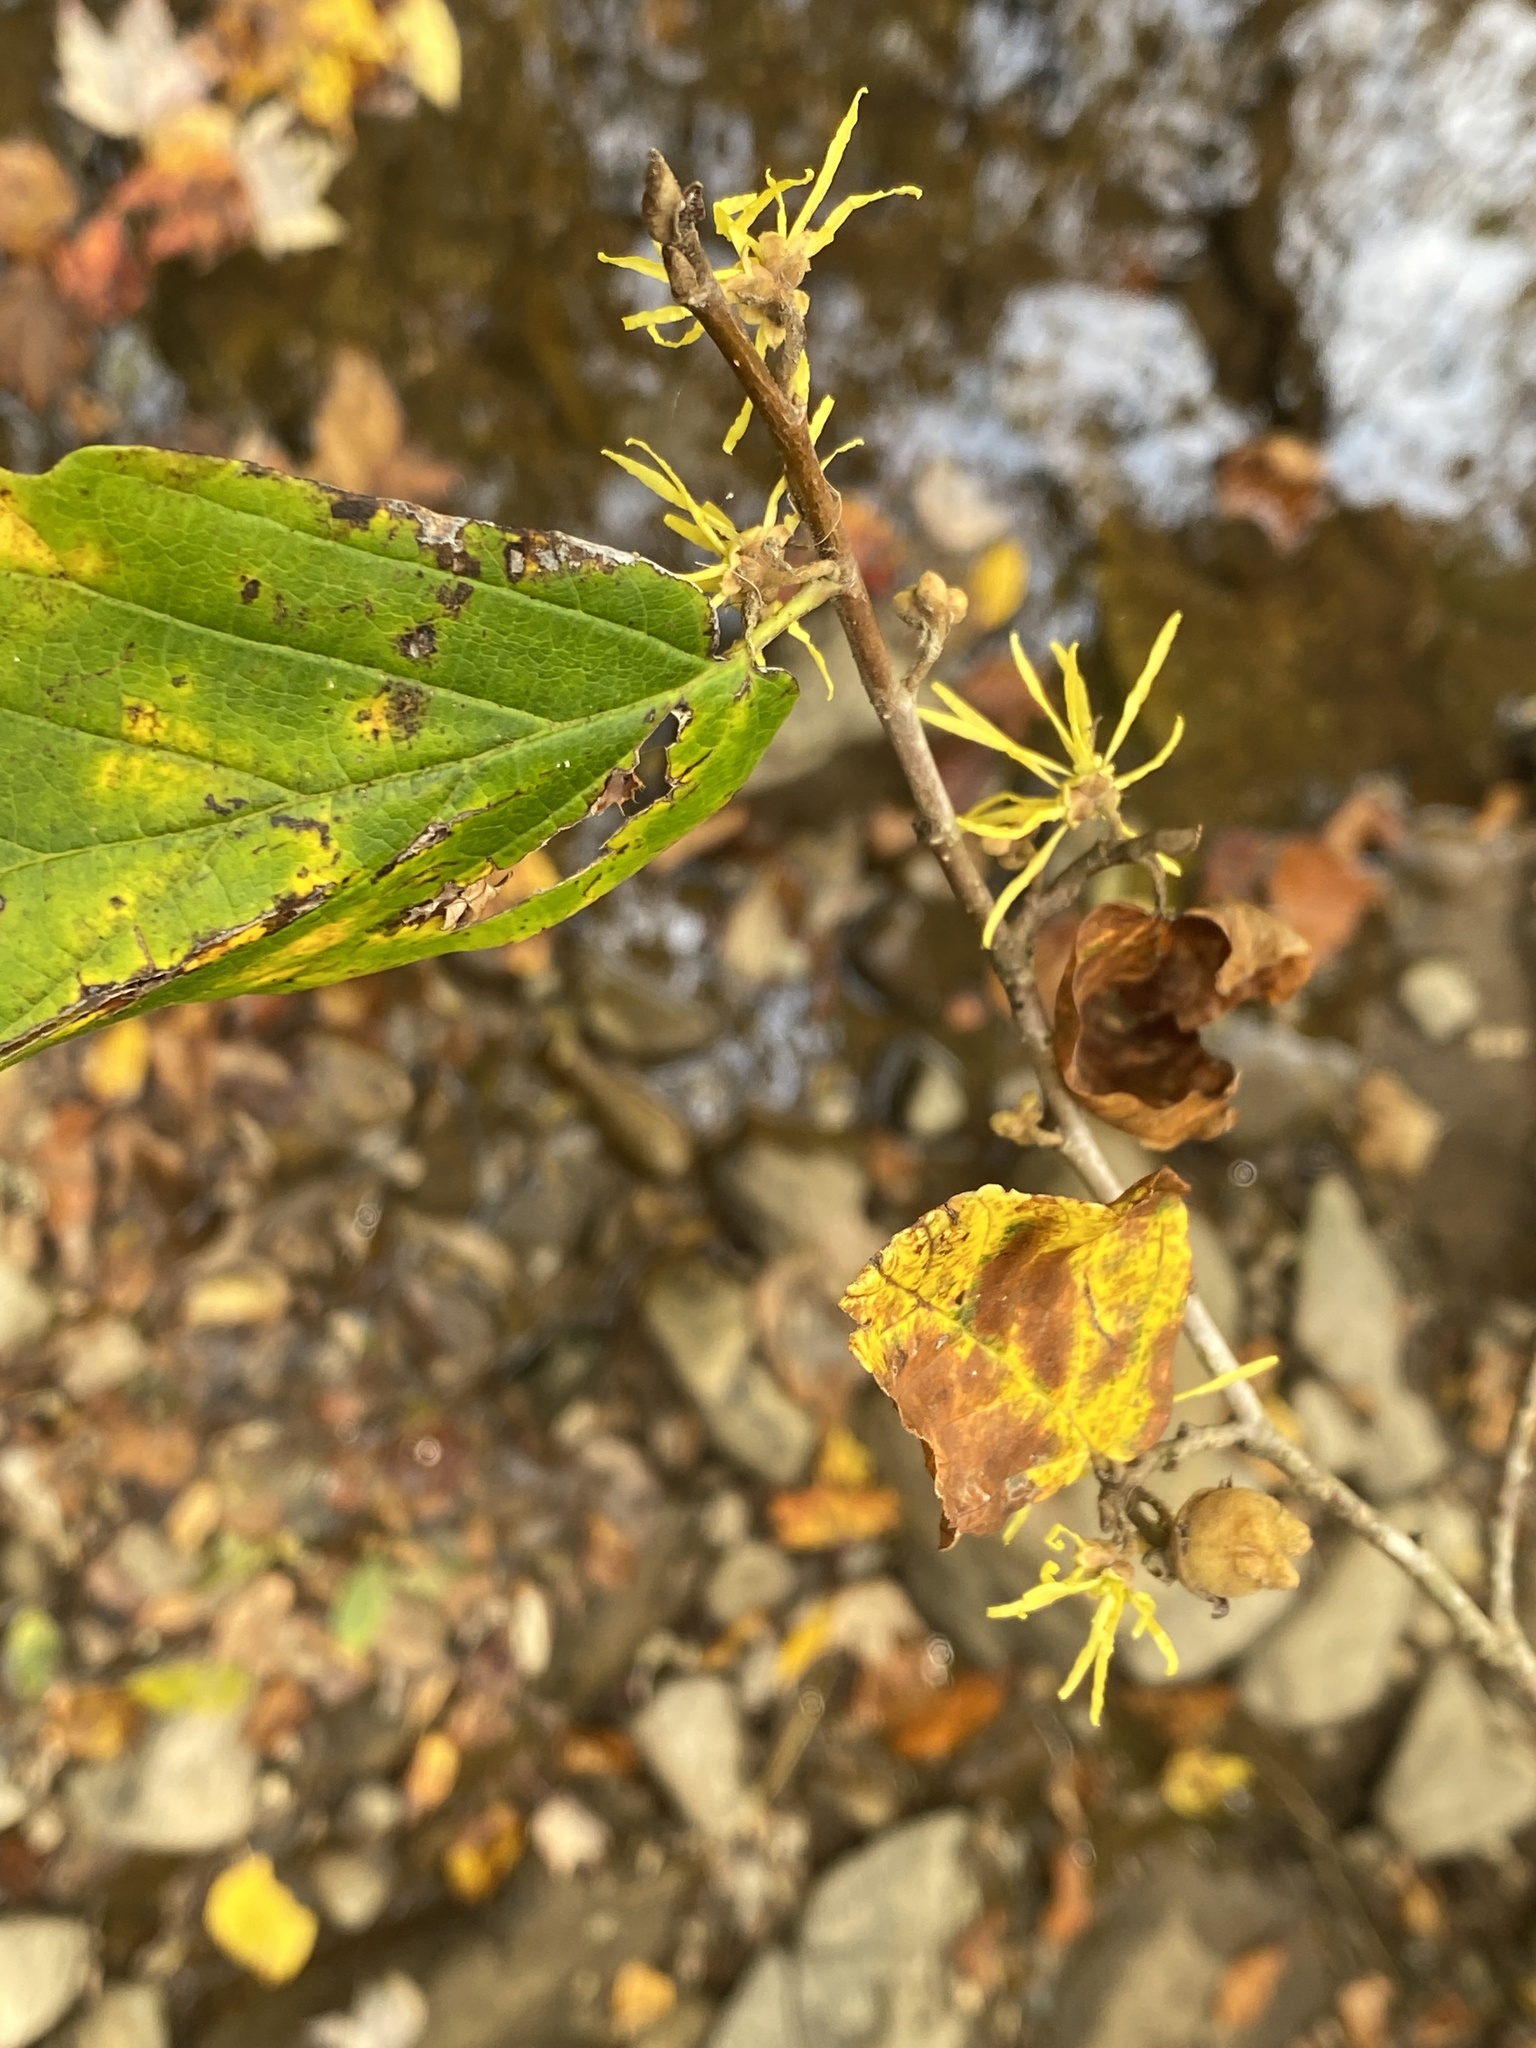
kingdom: Plantae
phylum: Tracheophyta
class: Magnoliopsida
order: Saxifragales
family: Hamamelidaceae
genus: Hamamelis
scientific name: Hamamelis virginiana
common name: Witch-hazel
